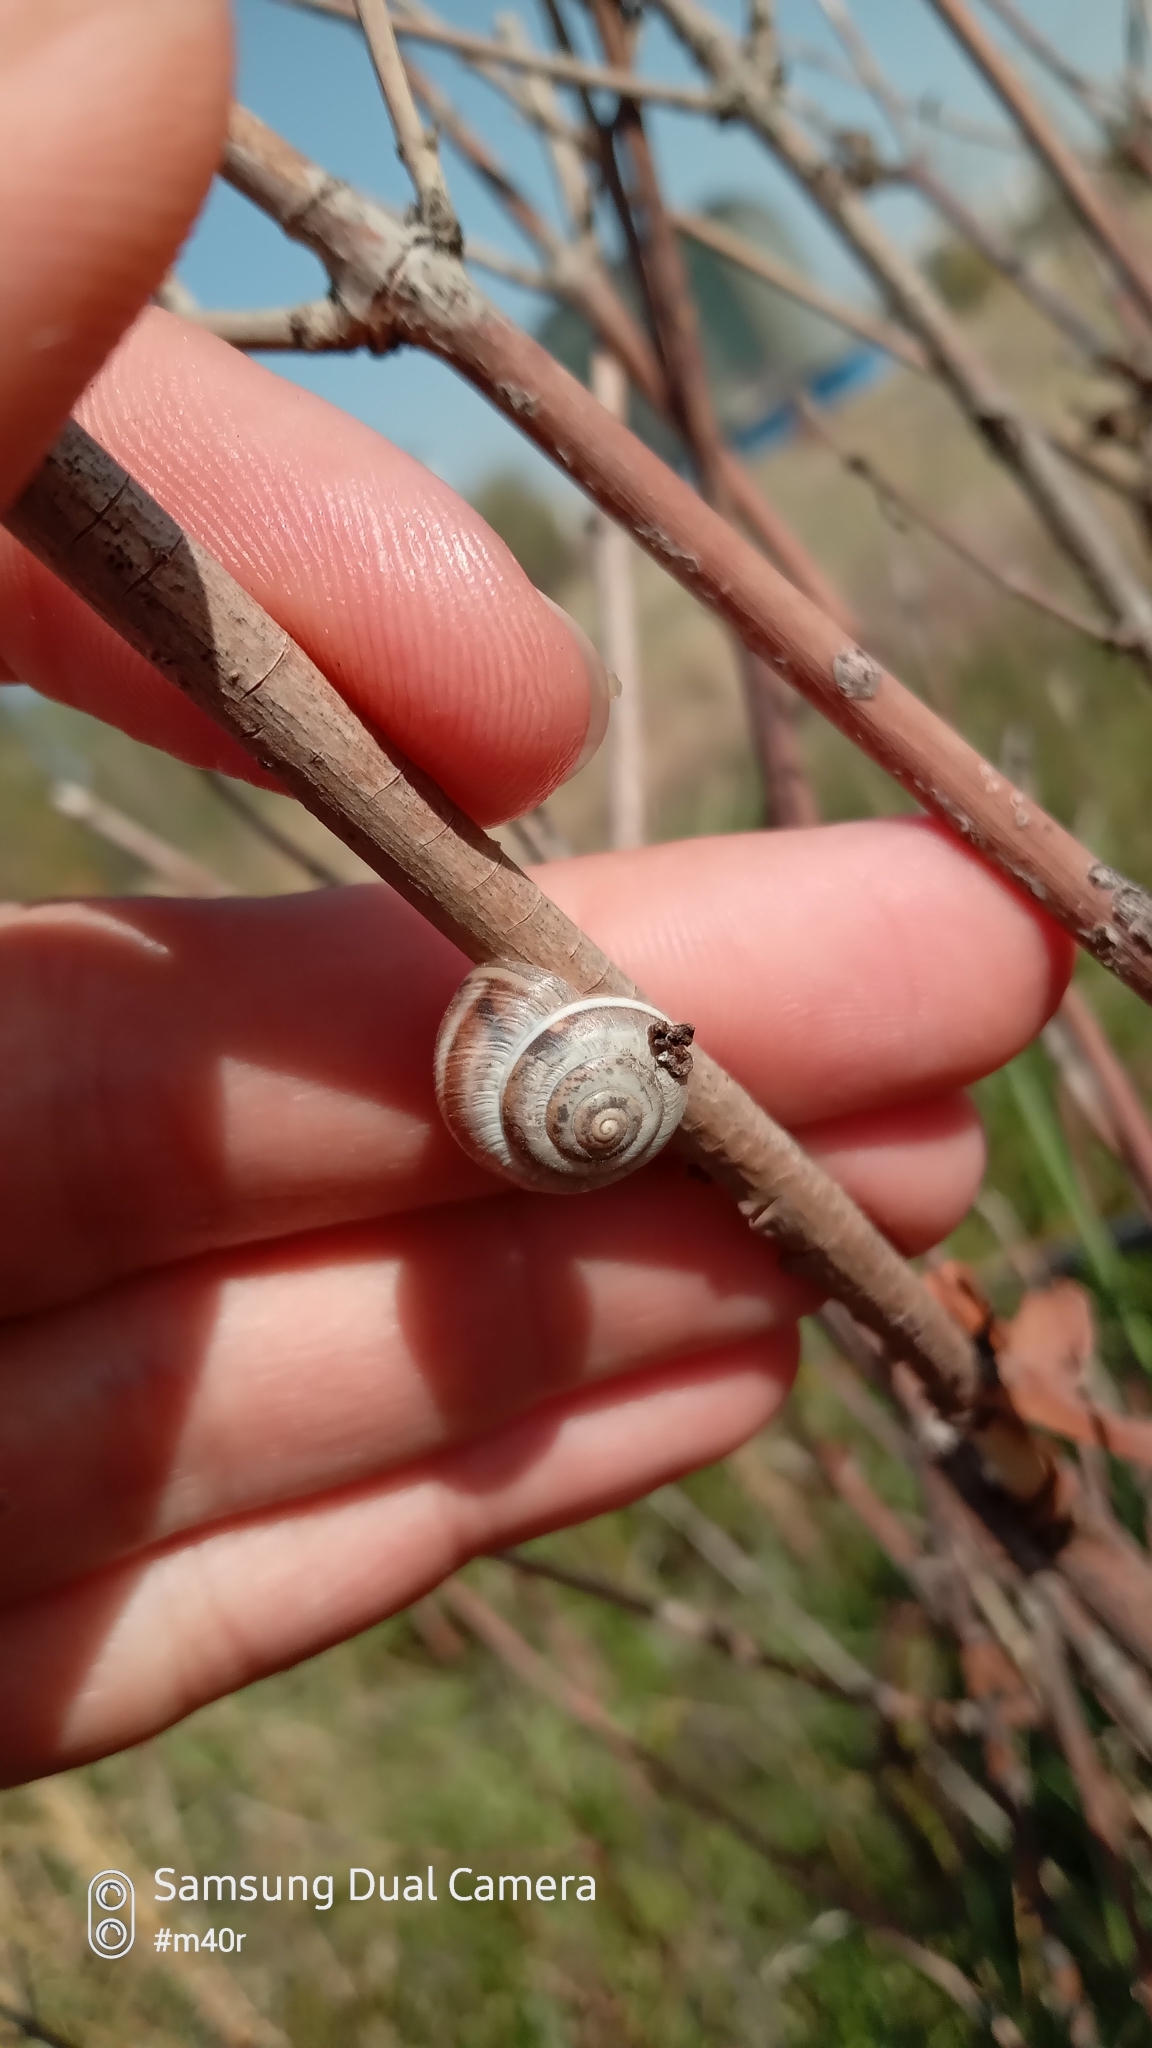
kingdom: Animalia
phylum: Mollusca
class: Gastropoda
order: Stylommatophora
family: Hygromiidae
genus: Harmozica
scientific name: Harmozica ravergiensis
